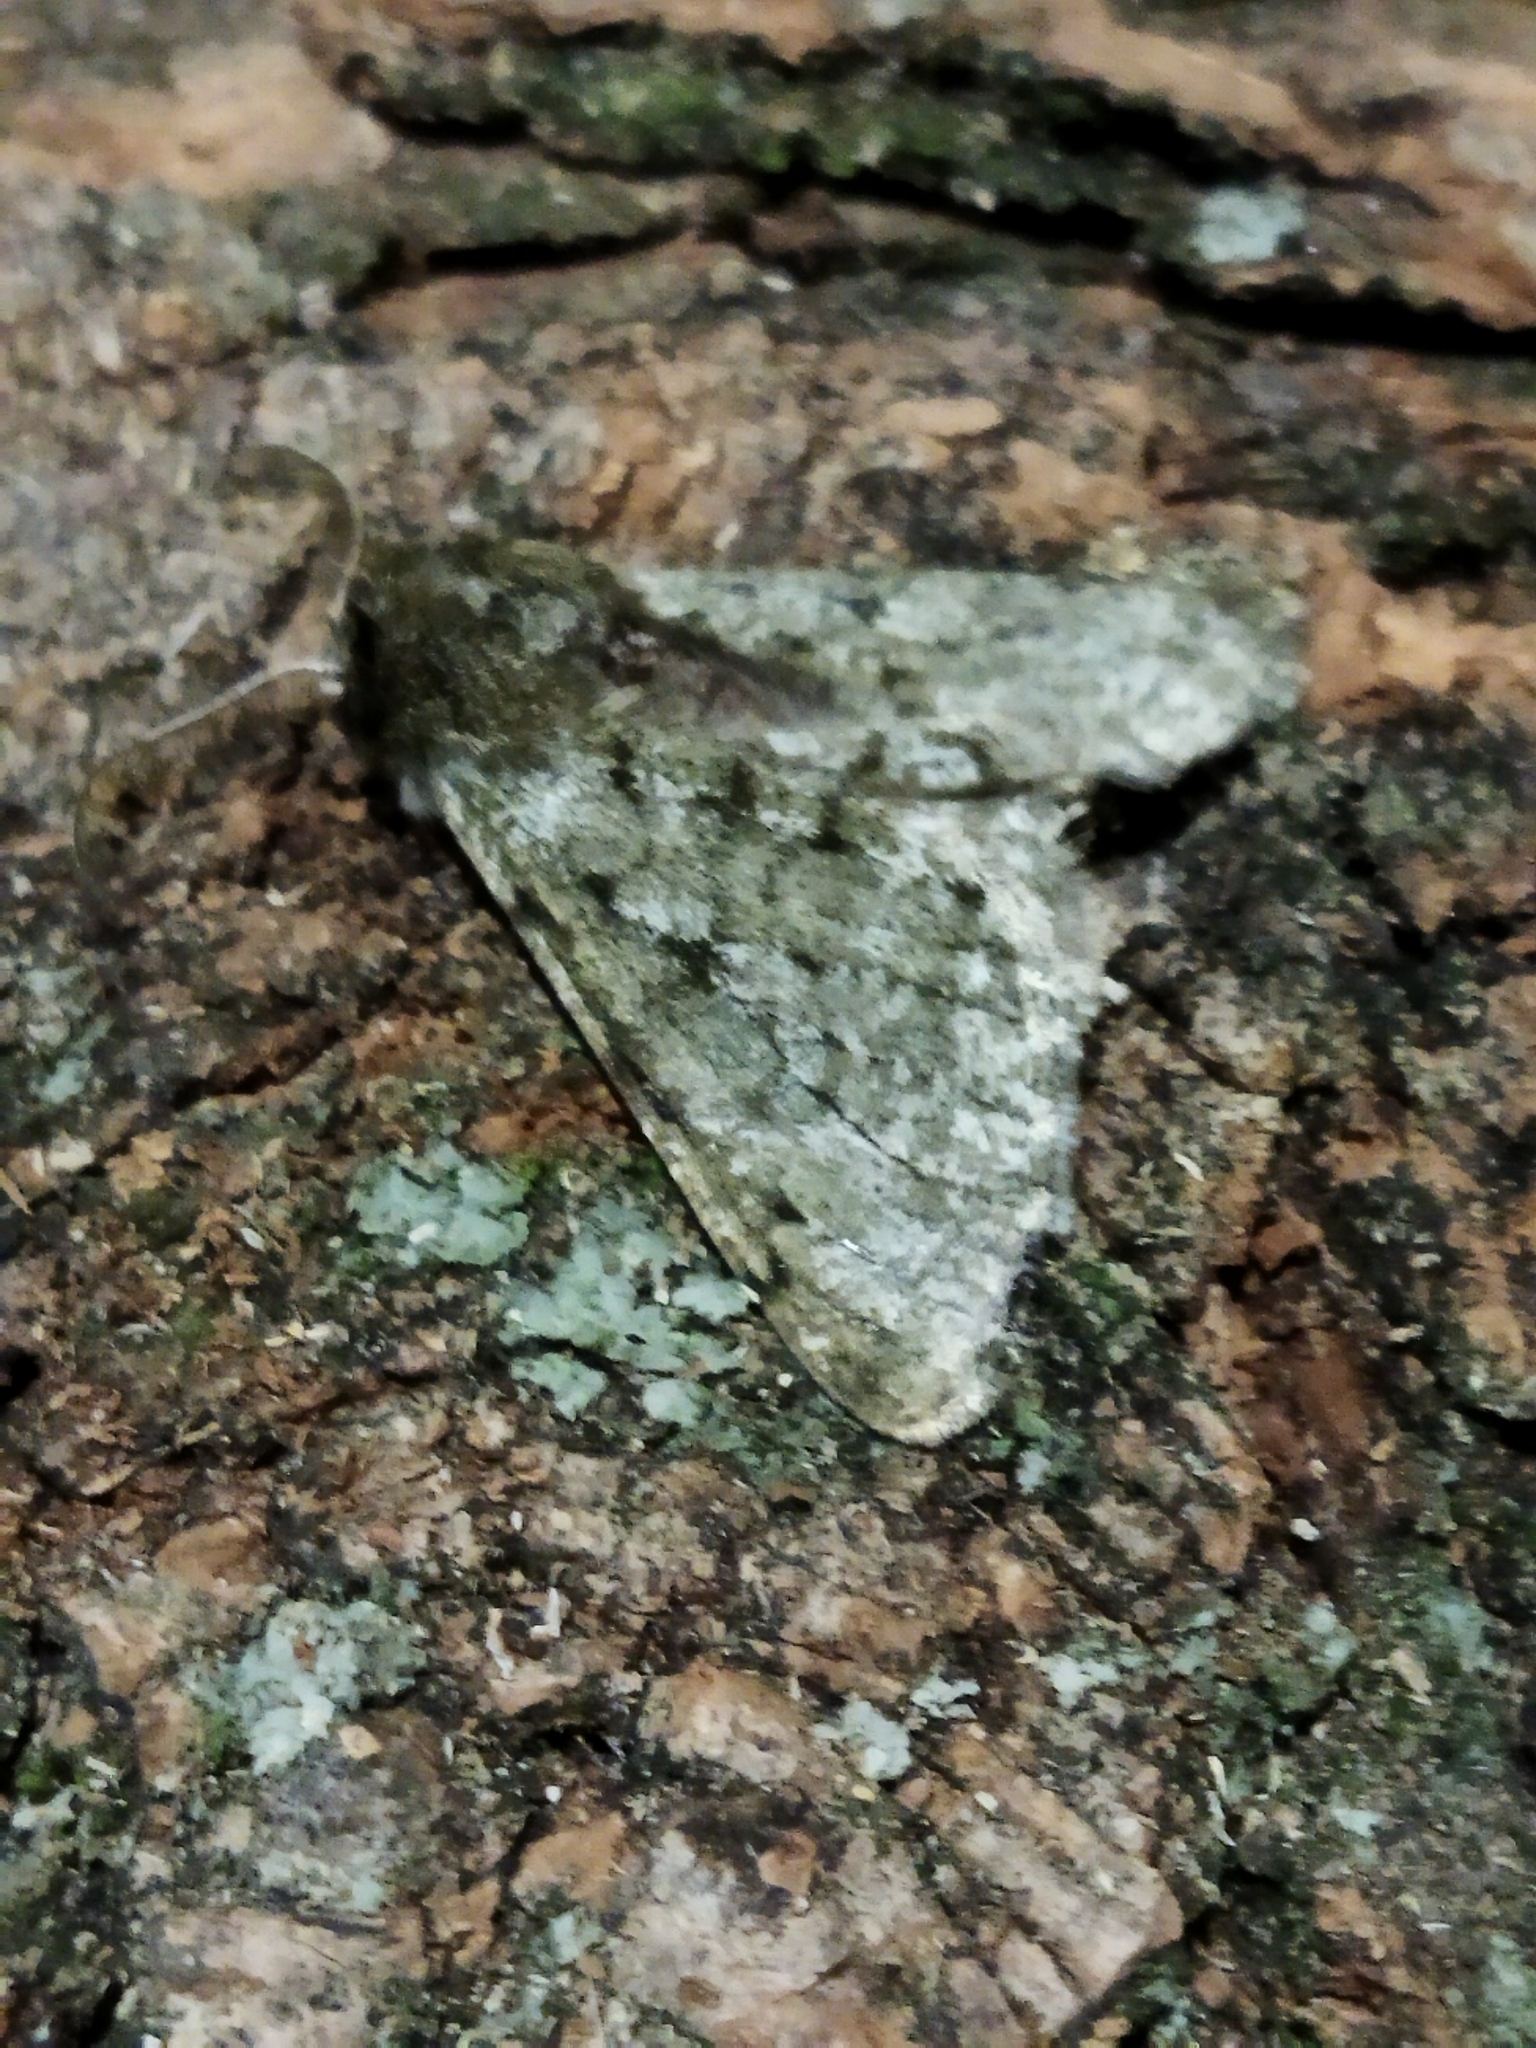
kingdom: Animalia
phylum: Arthropoda
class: Insecta
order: Lepidoptera
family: Geometridae
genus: Phigalia
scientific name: Phigalia pilosaria
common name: Pale brindled beauty
